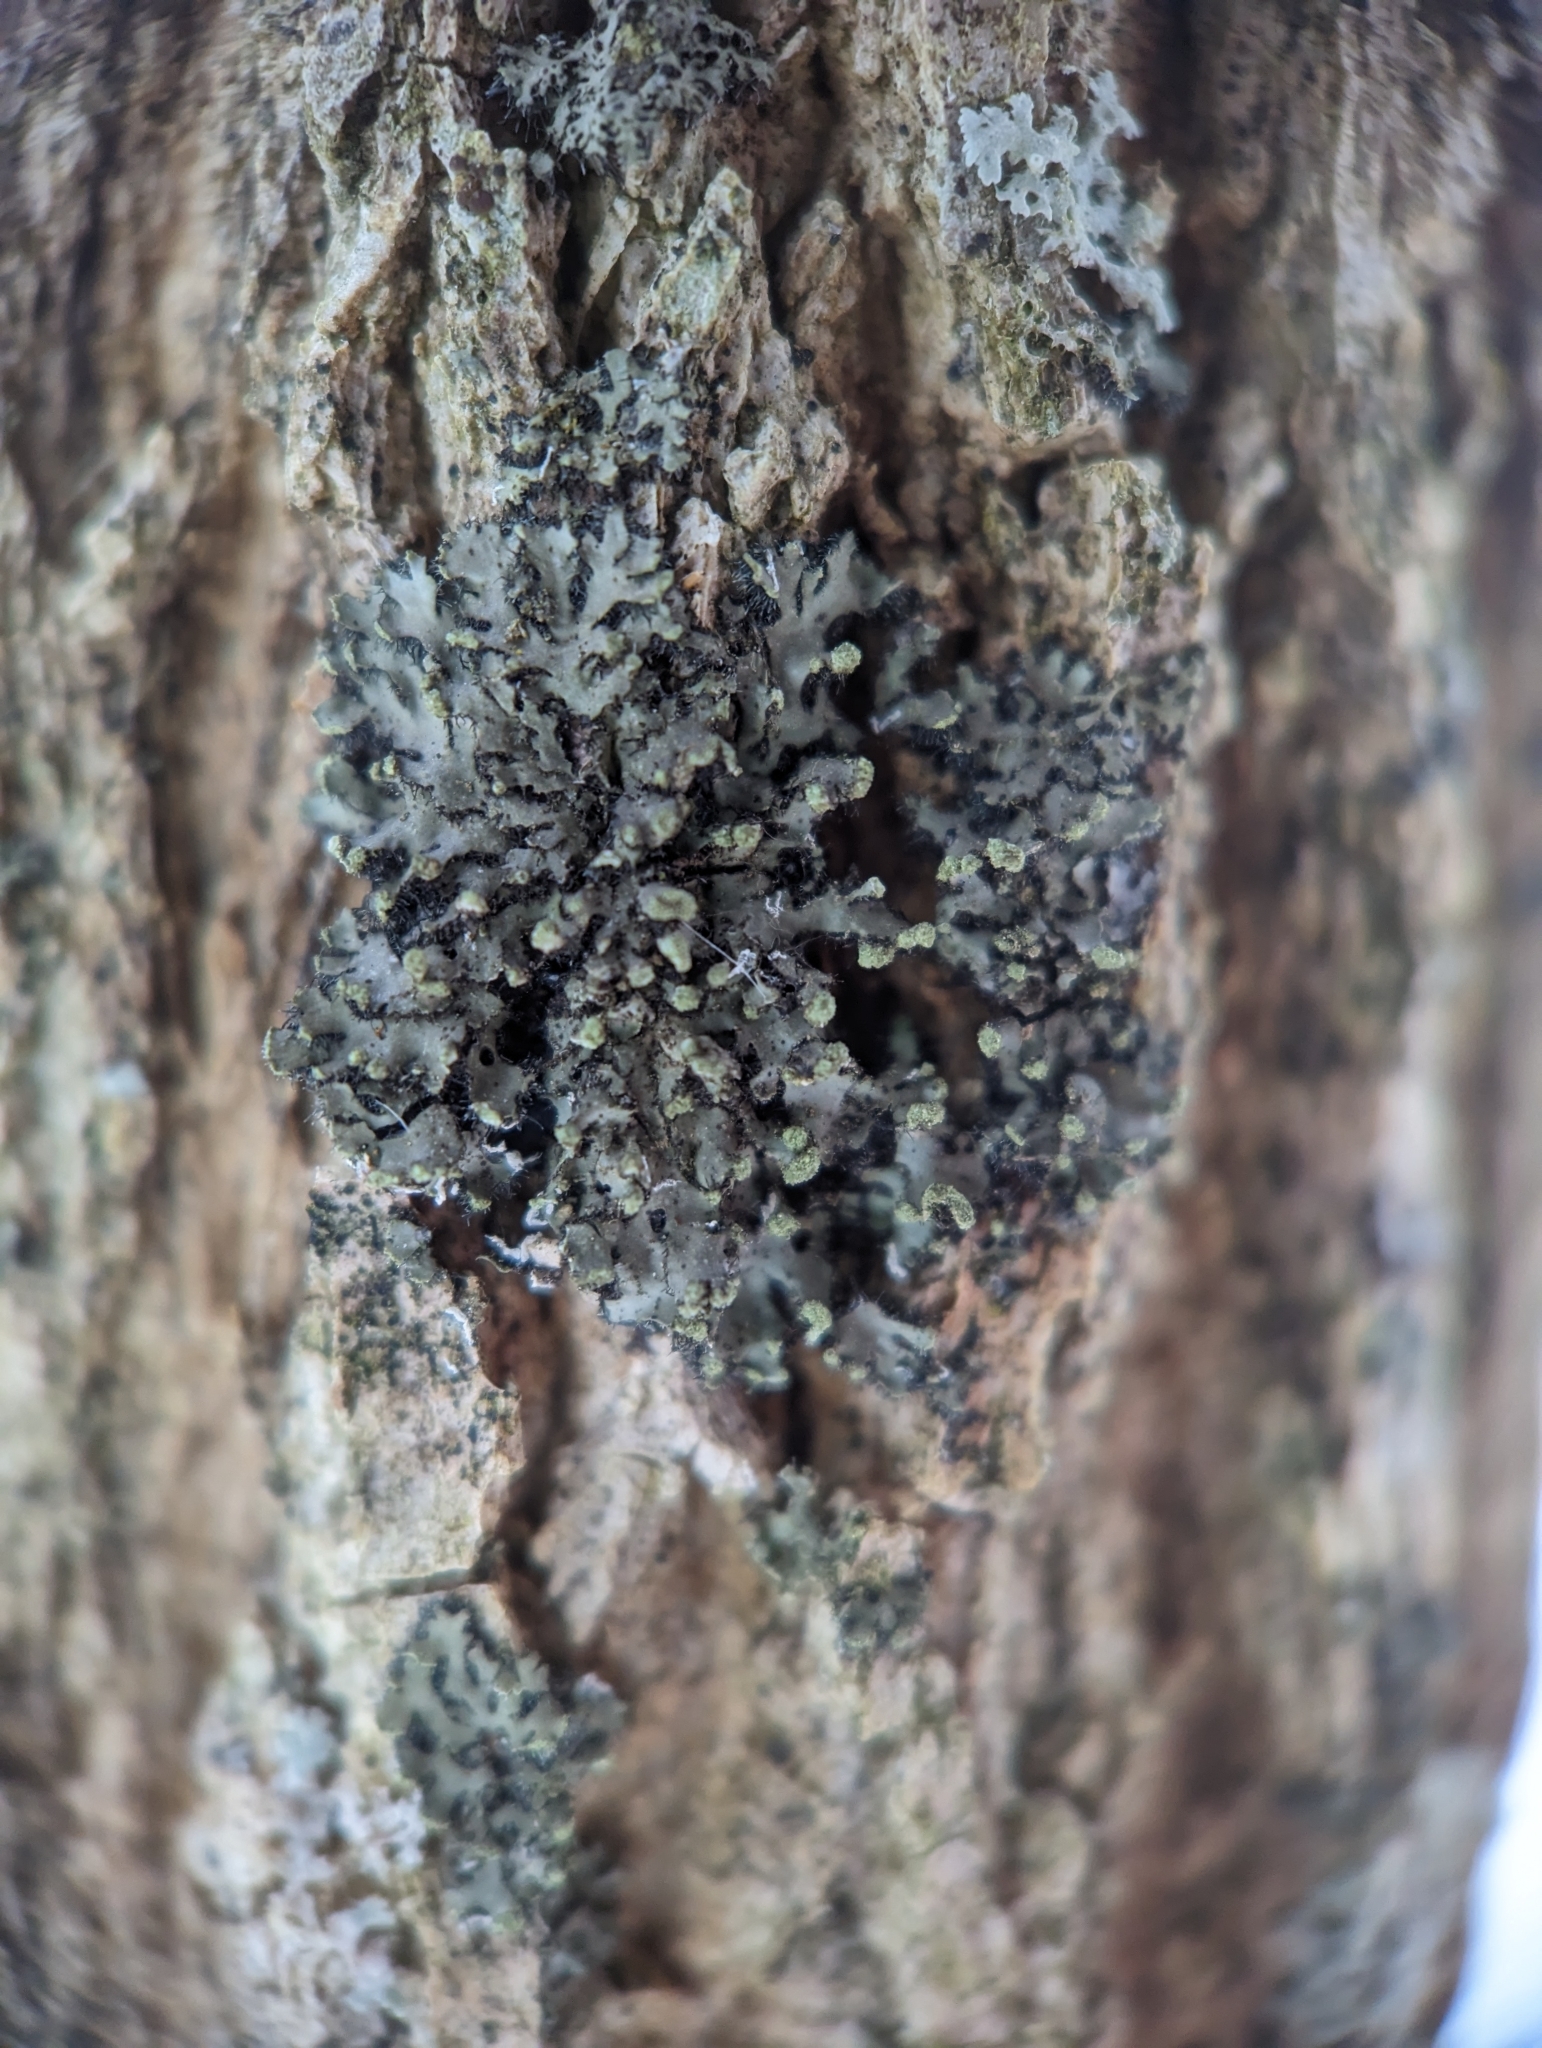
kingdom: Fungi
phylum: Ascomycota
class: Lecanoromycetes
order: Caliciales
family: Physciaceae
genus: Phaeophyscia
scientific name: Phaeophyscia pusilloides
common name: Pom-pom shadow lichen
